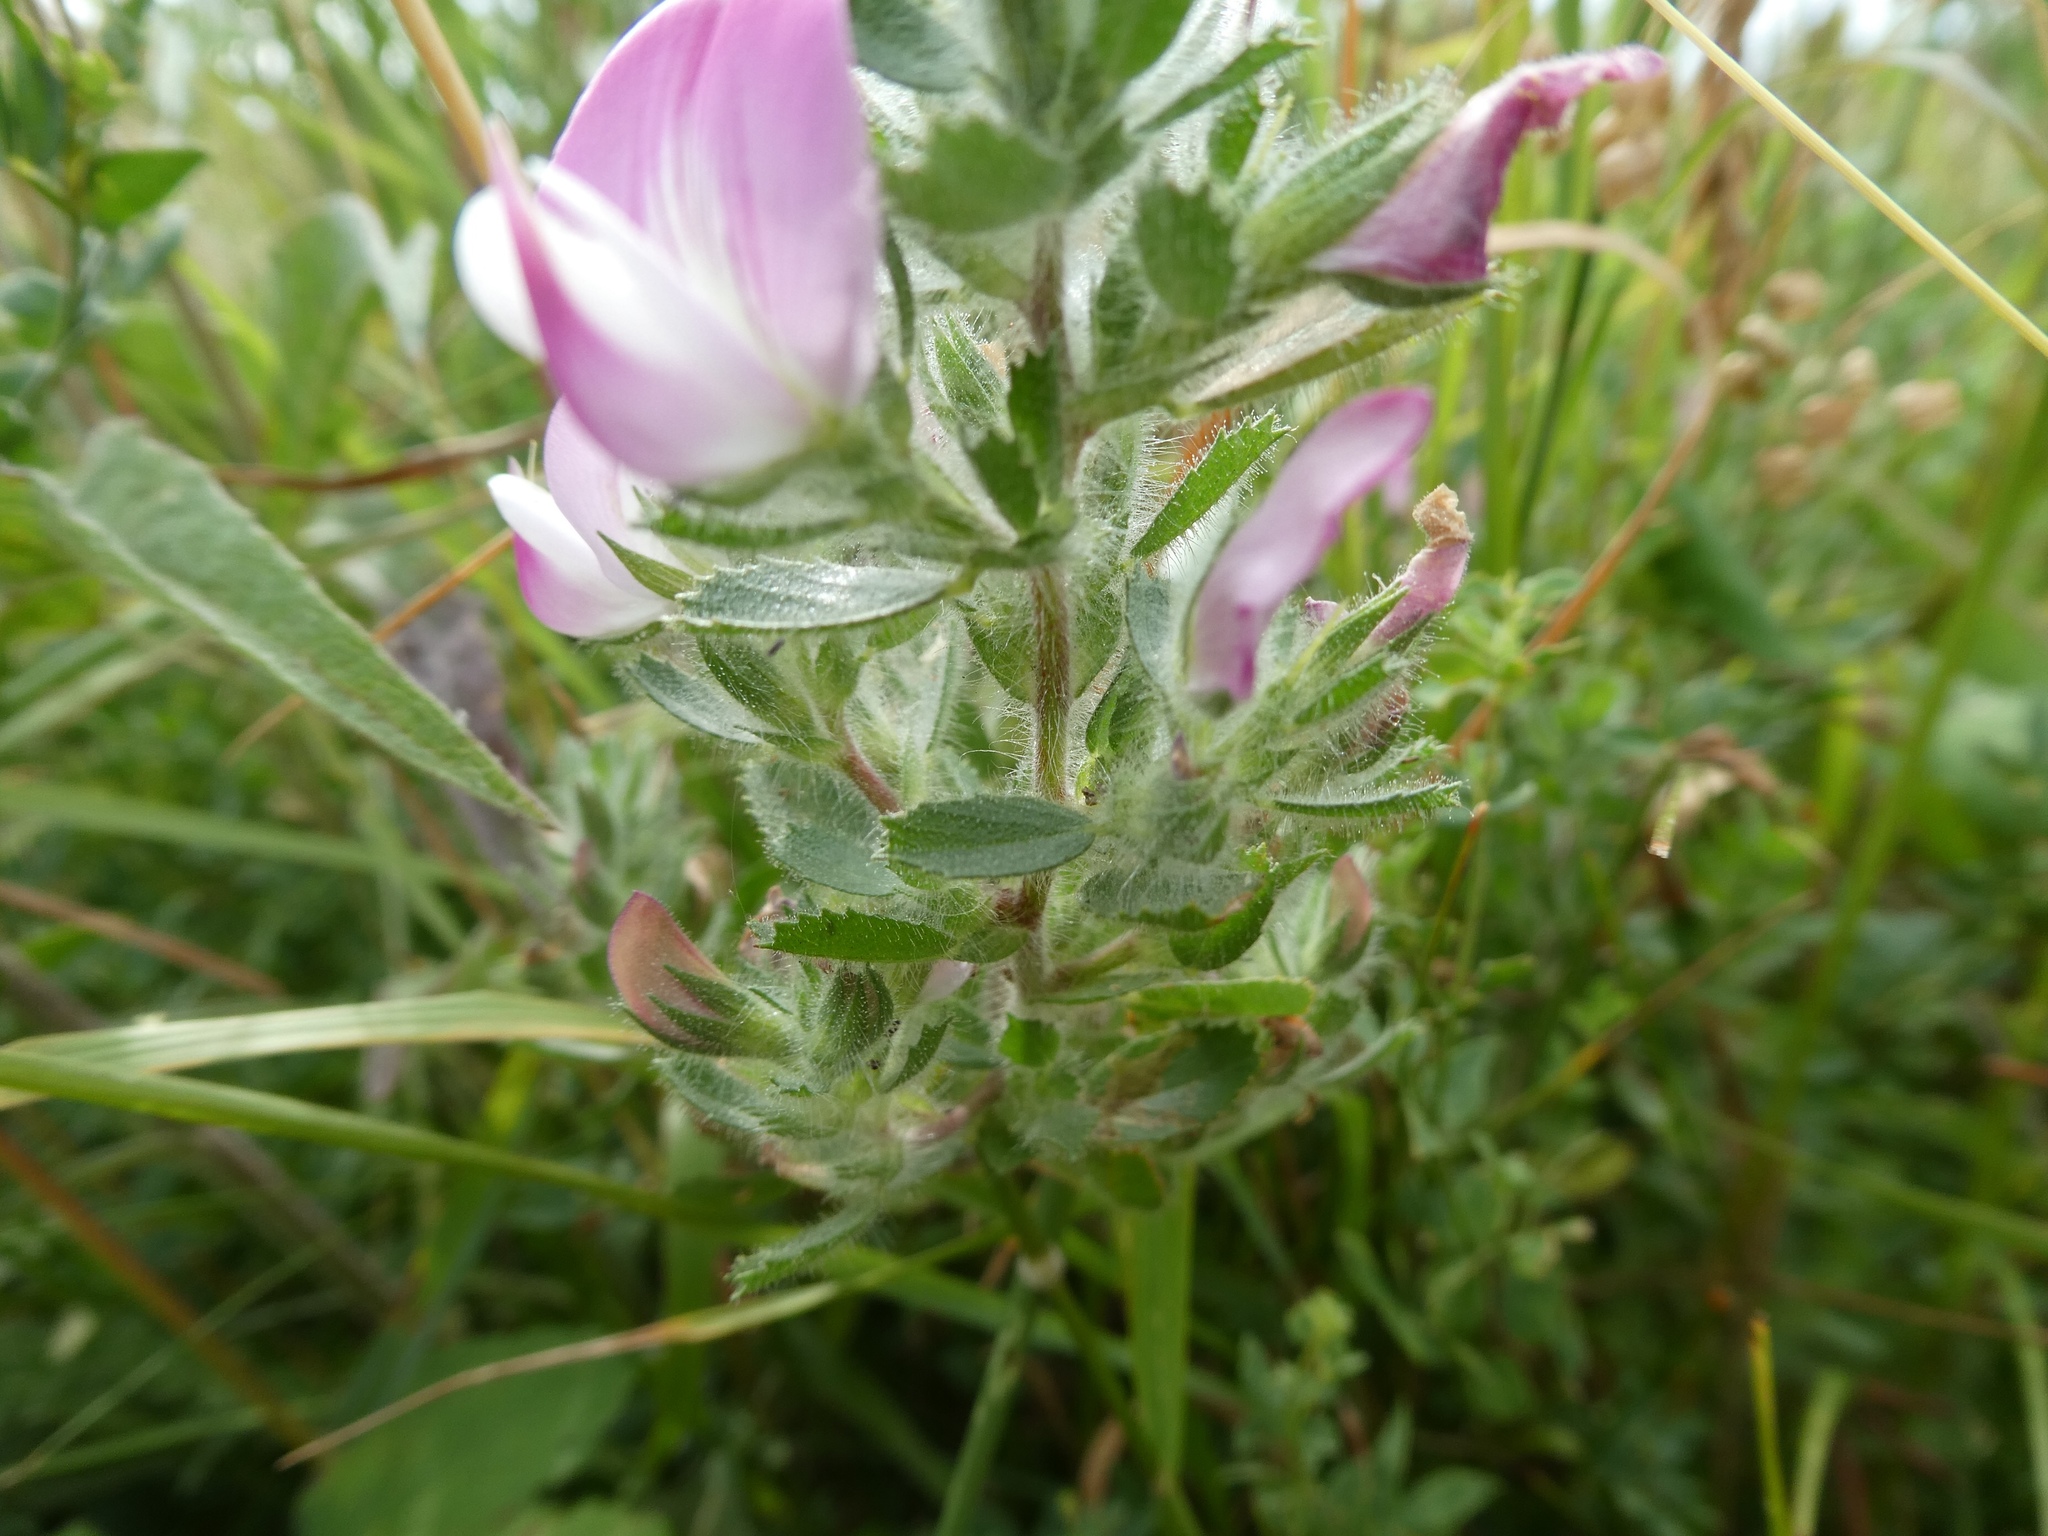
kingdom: Plantae
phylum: Tracheophyta
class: Magnoliopsida
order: Fabales
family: Fabaceae
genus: Ononis
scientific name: Ononis spinosa
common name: Spiny restharrow
